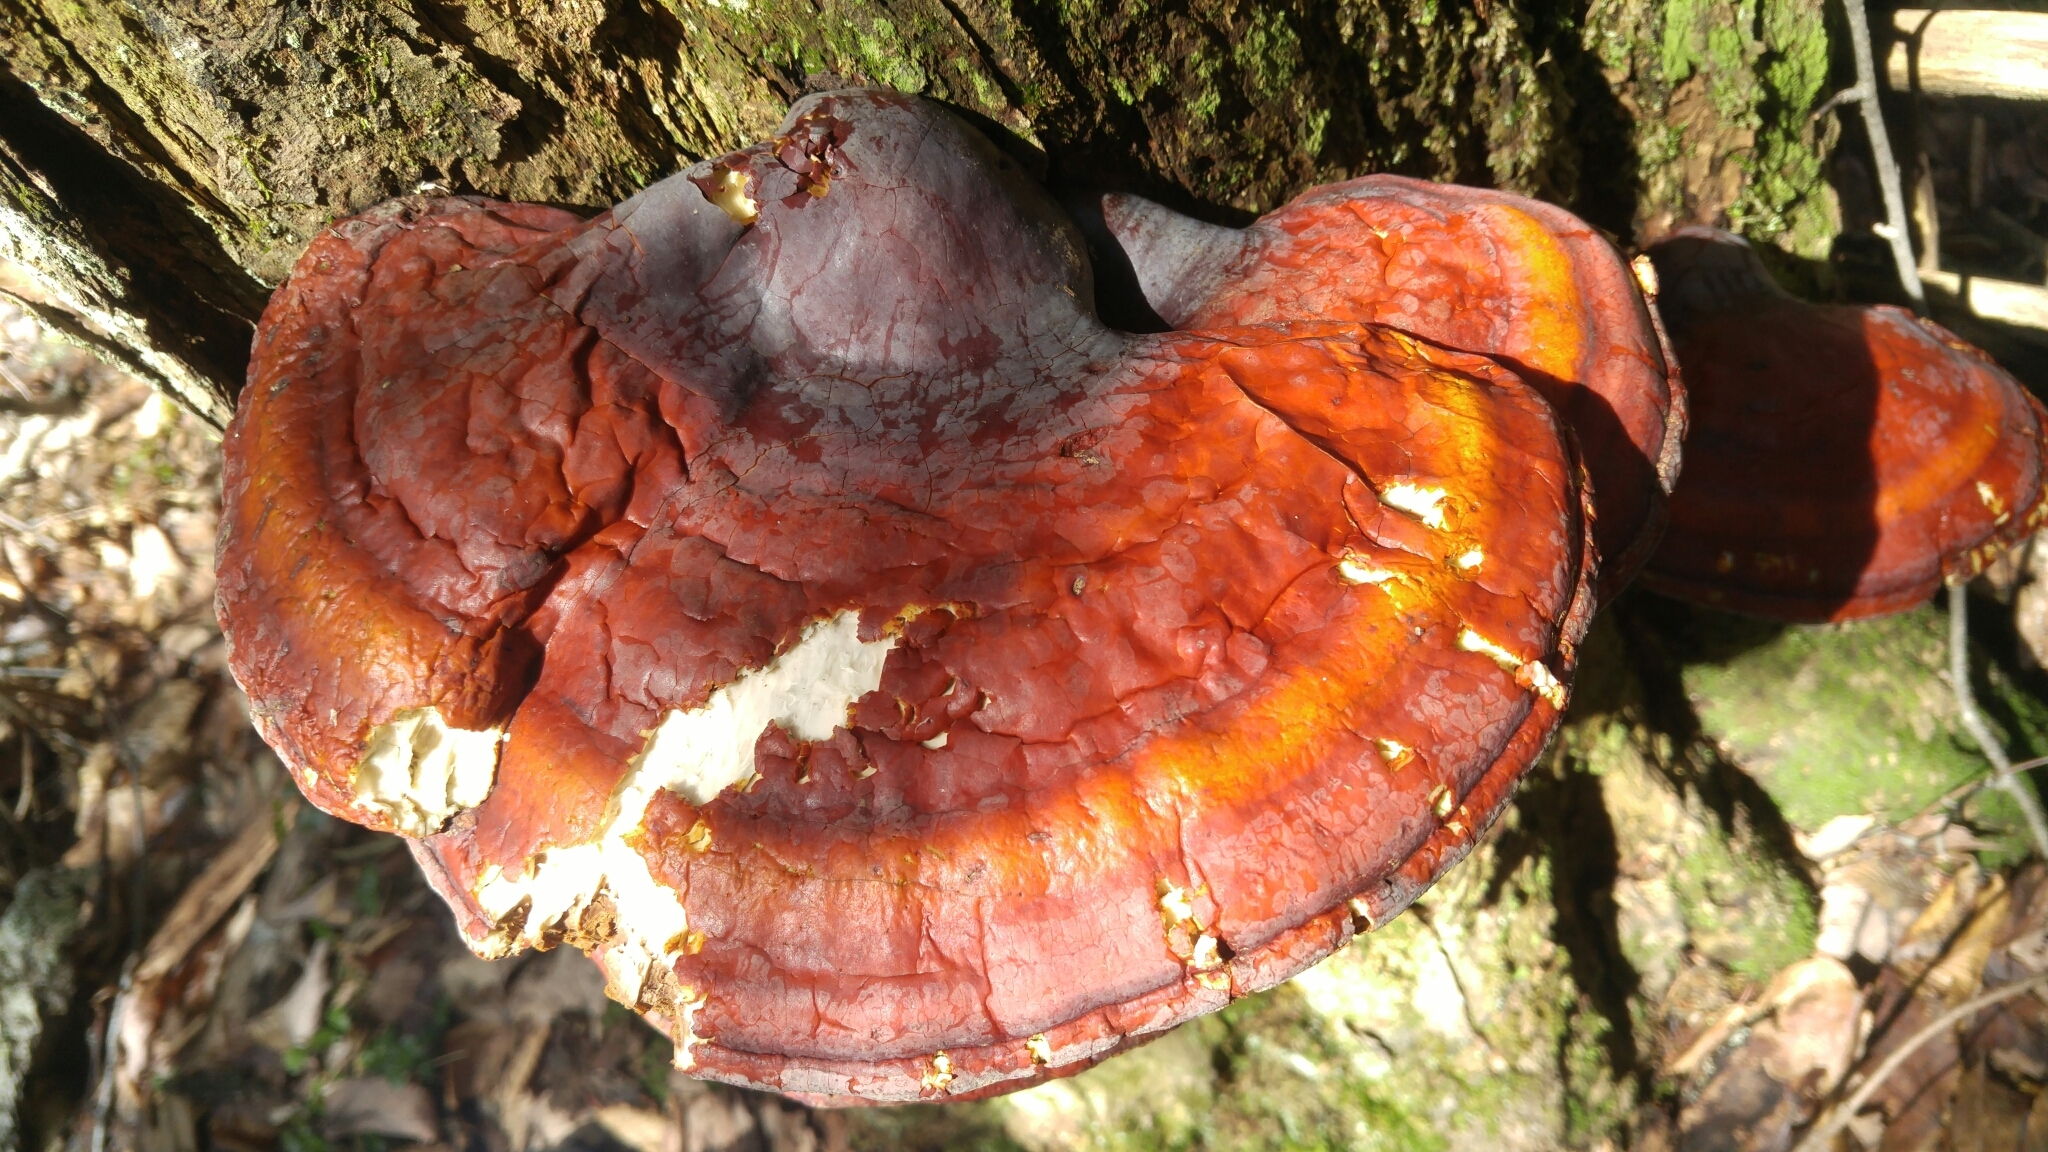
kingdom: Fungi
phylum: Basidiomycota
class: Agaricomycetes
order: Polyporales
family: Polyporaceae
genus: Ganoderma
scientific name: Ganoderma tsugae
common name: Hemlock varnish shelf
